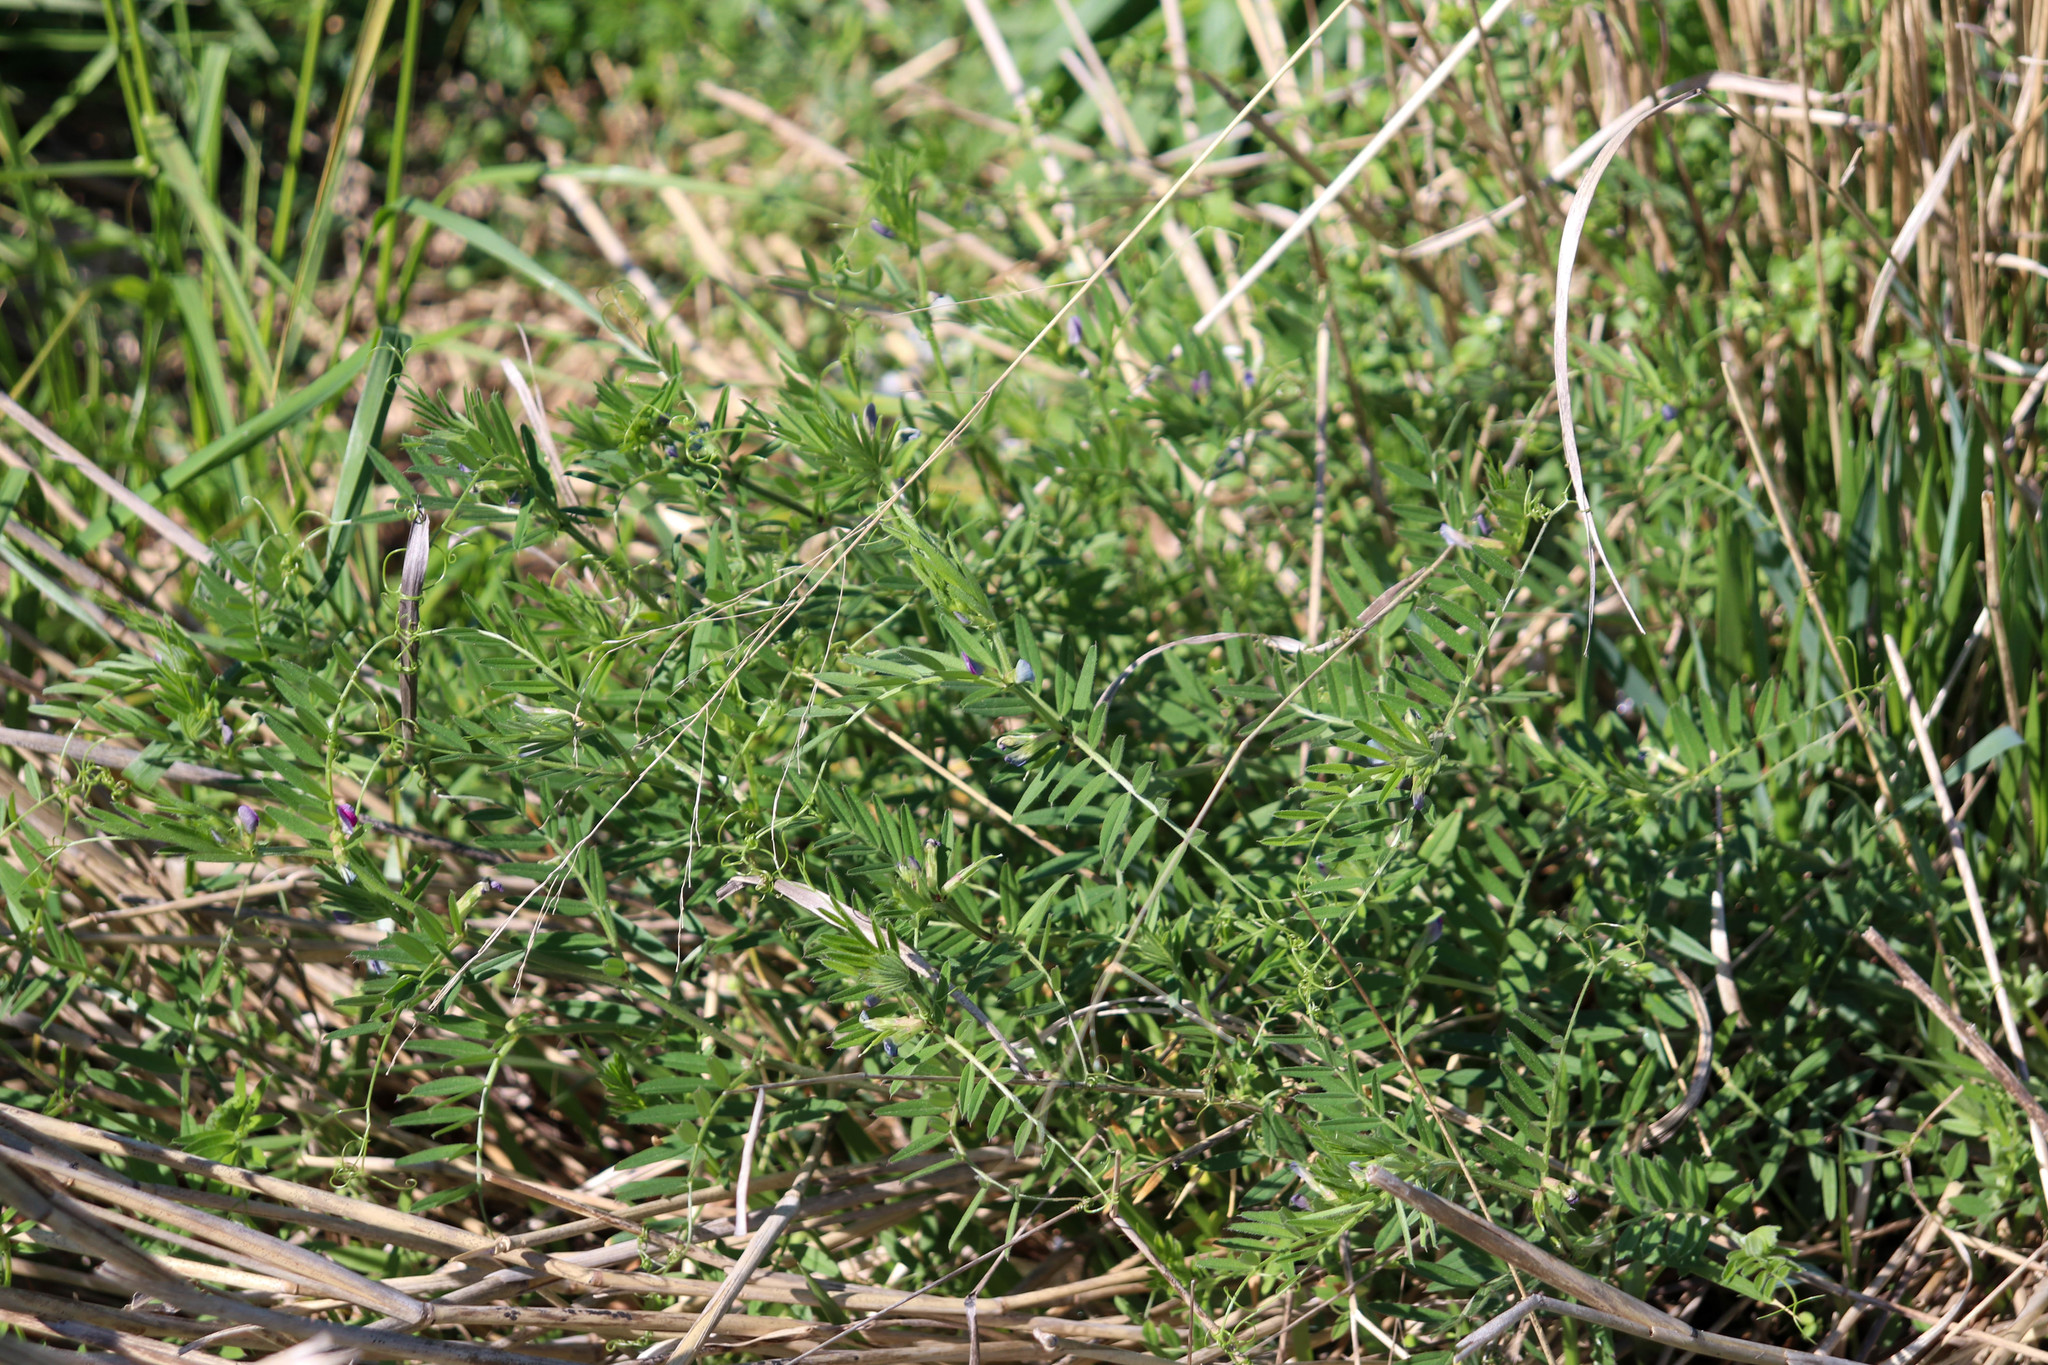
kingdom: Plantae
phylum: Tracheophyta
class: Magnoliopsida
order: Fabales
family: Fabaceae
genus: Vicia
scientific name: Vicia sativa
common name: Garden vetch
